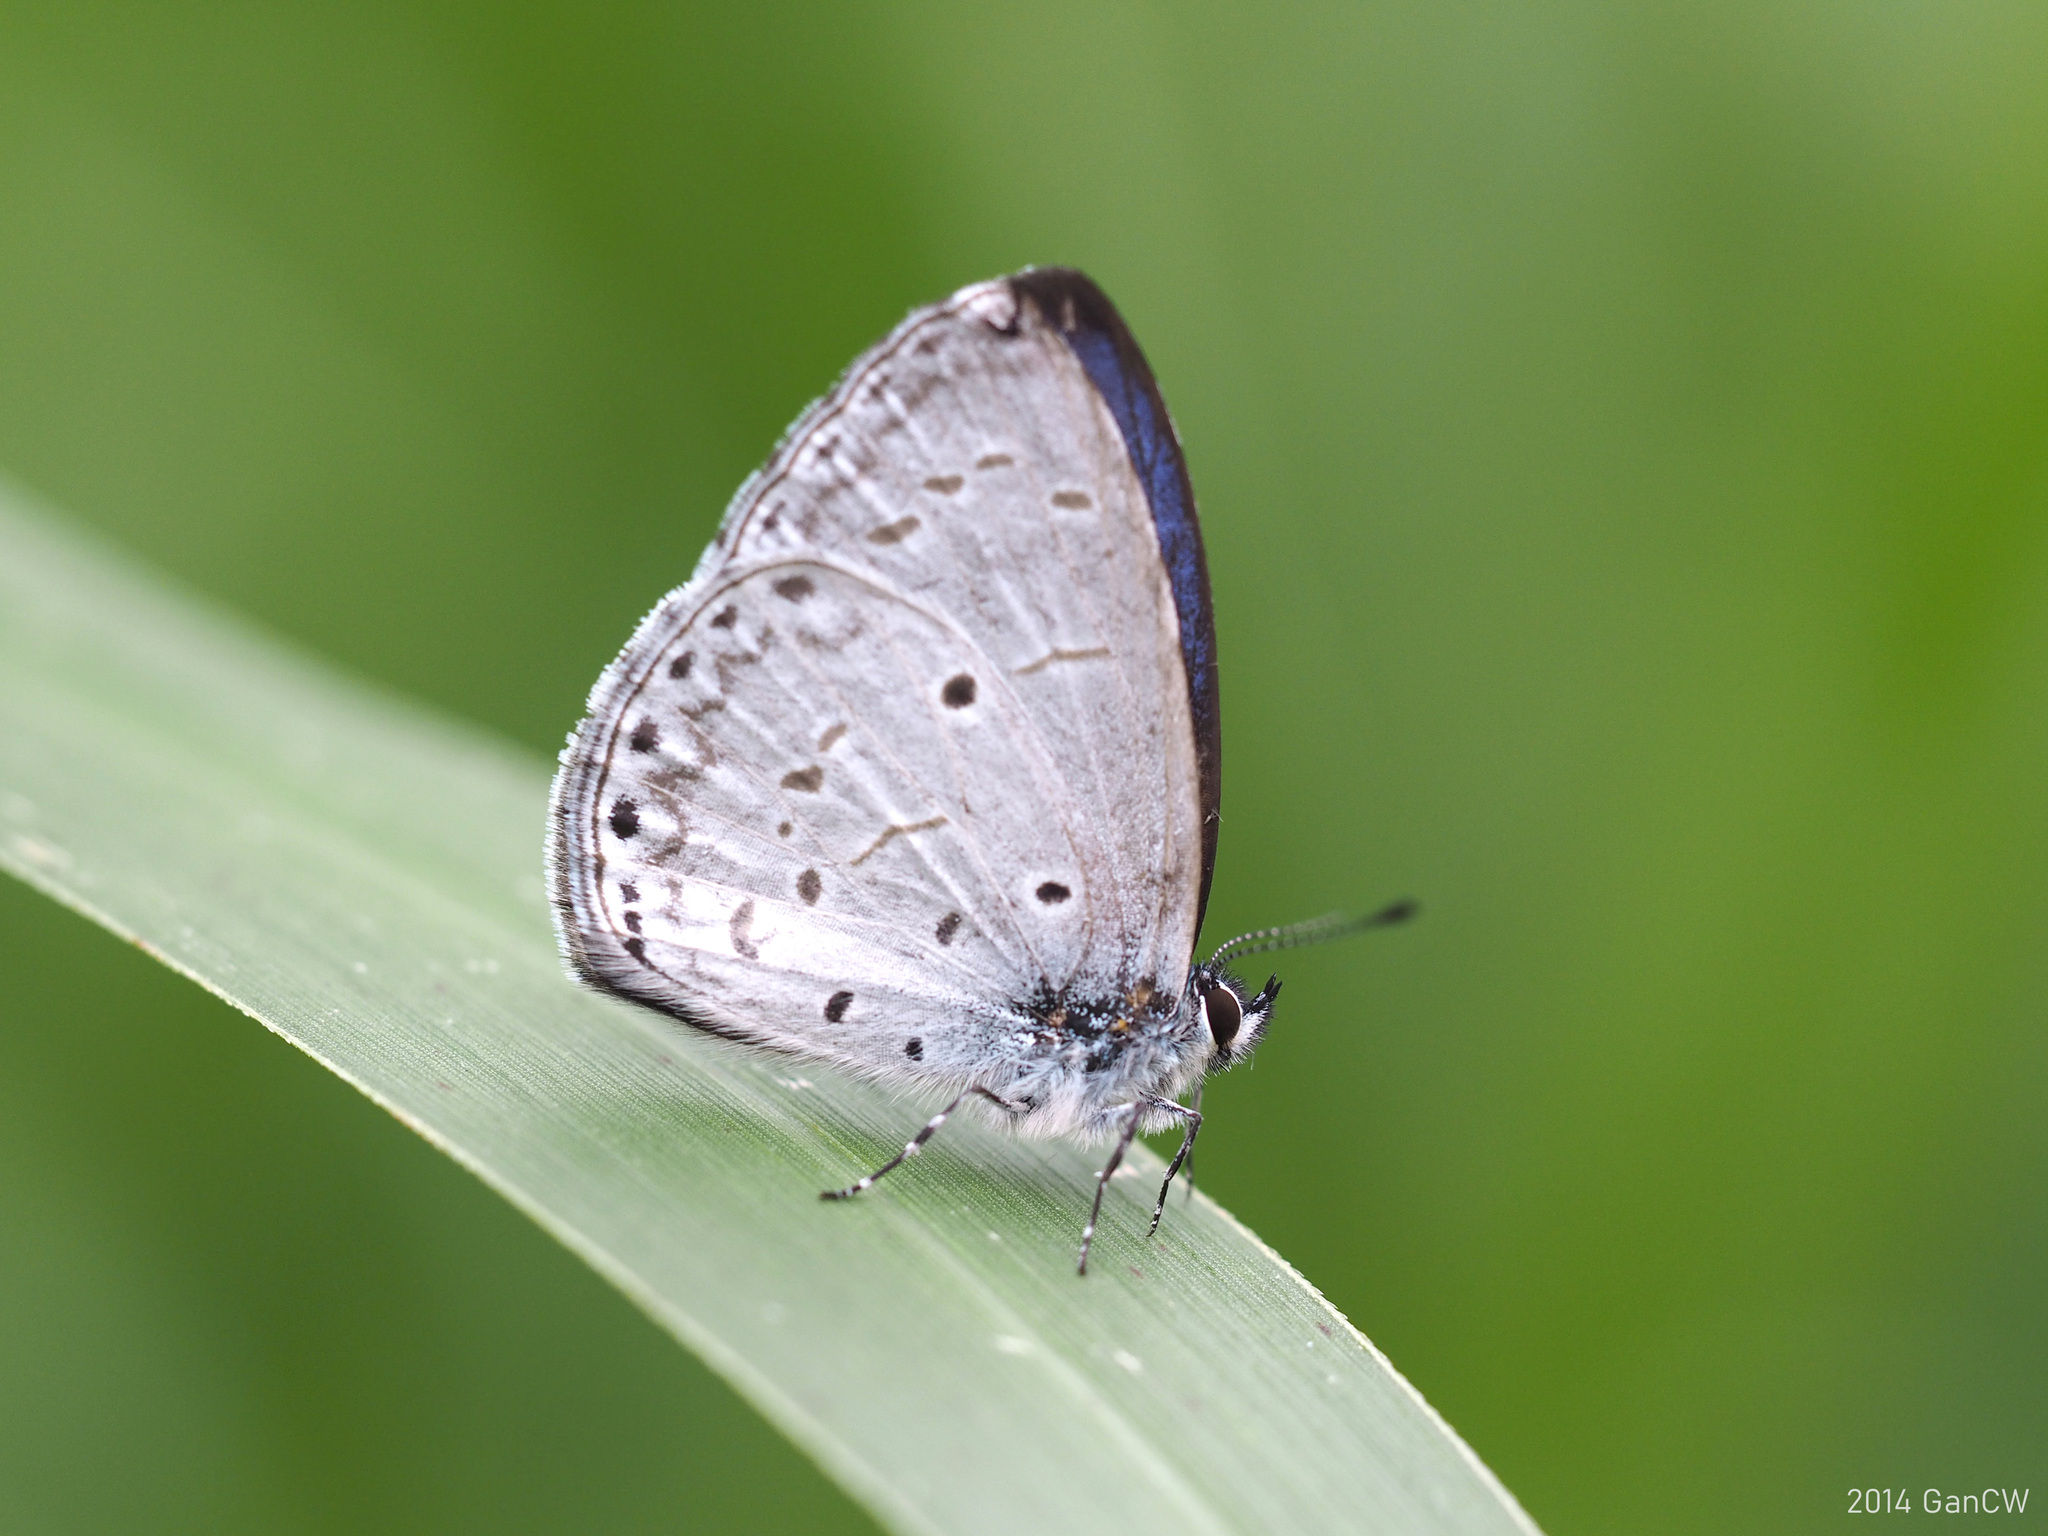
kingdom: Animalia
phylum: Arthropoda
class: Insecta
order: Lepidoptera
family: Lycaenidae
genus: Udara
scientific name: Udara
